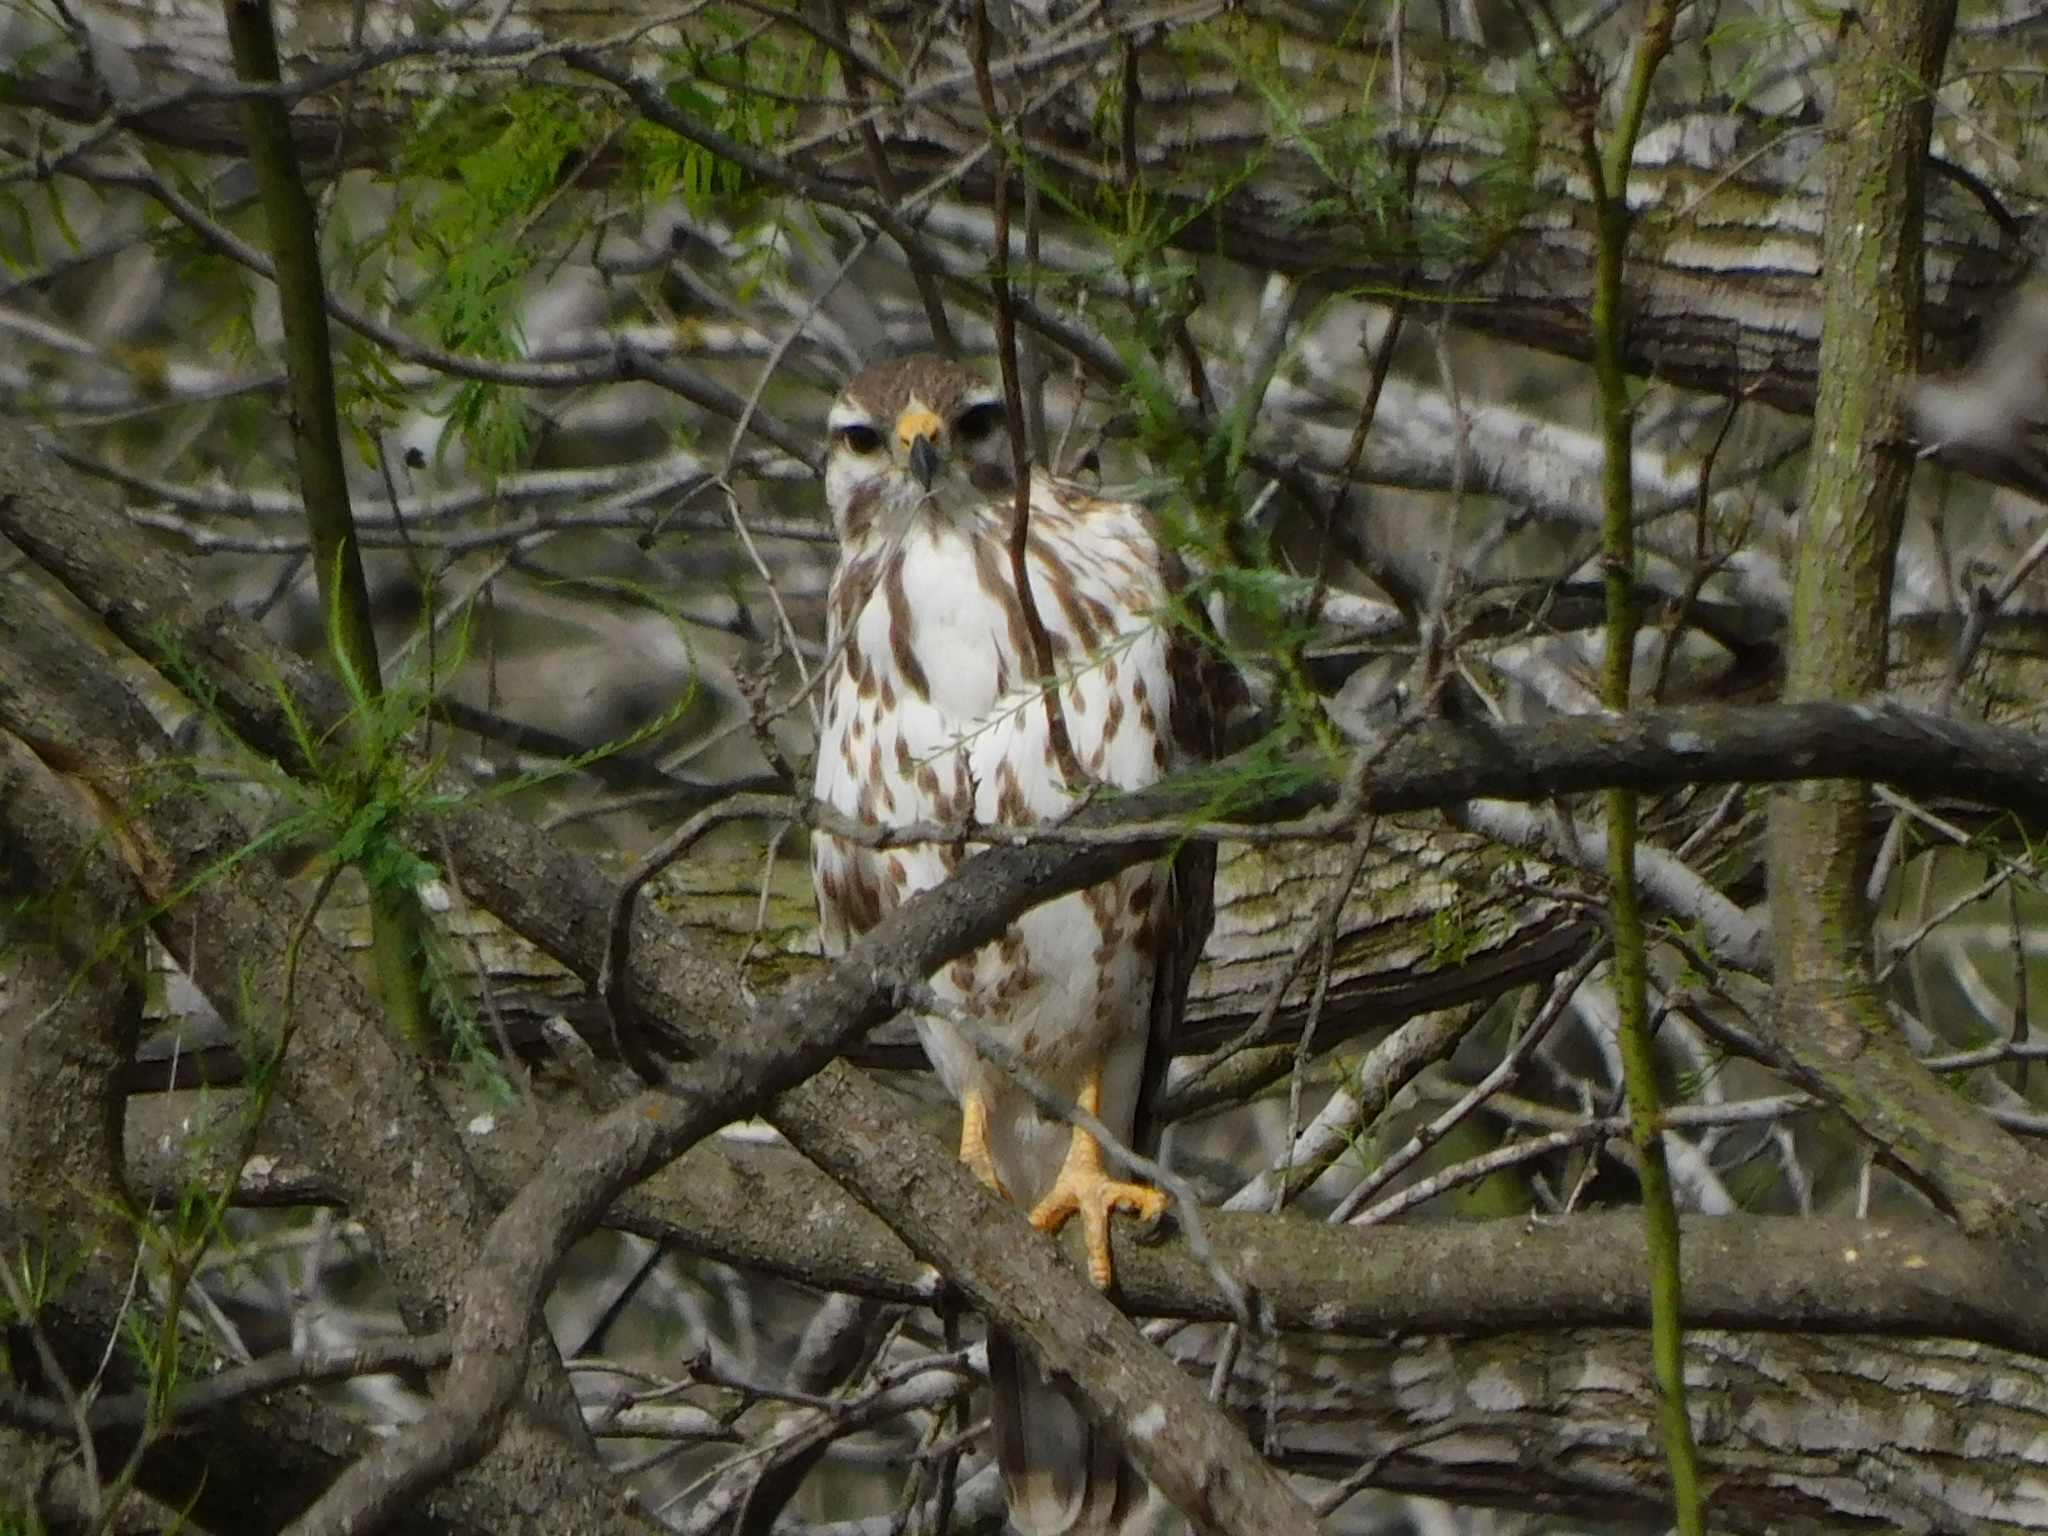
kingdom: Animalia
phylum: Chordata
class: Aves
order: Accipitriformes
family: Accipitridae
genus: Buteo
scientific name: Buteo nitidus
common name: Grey-lined hawk
